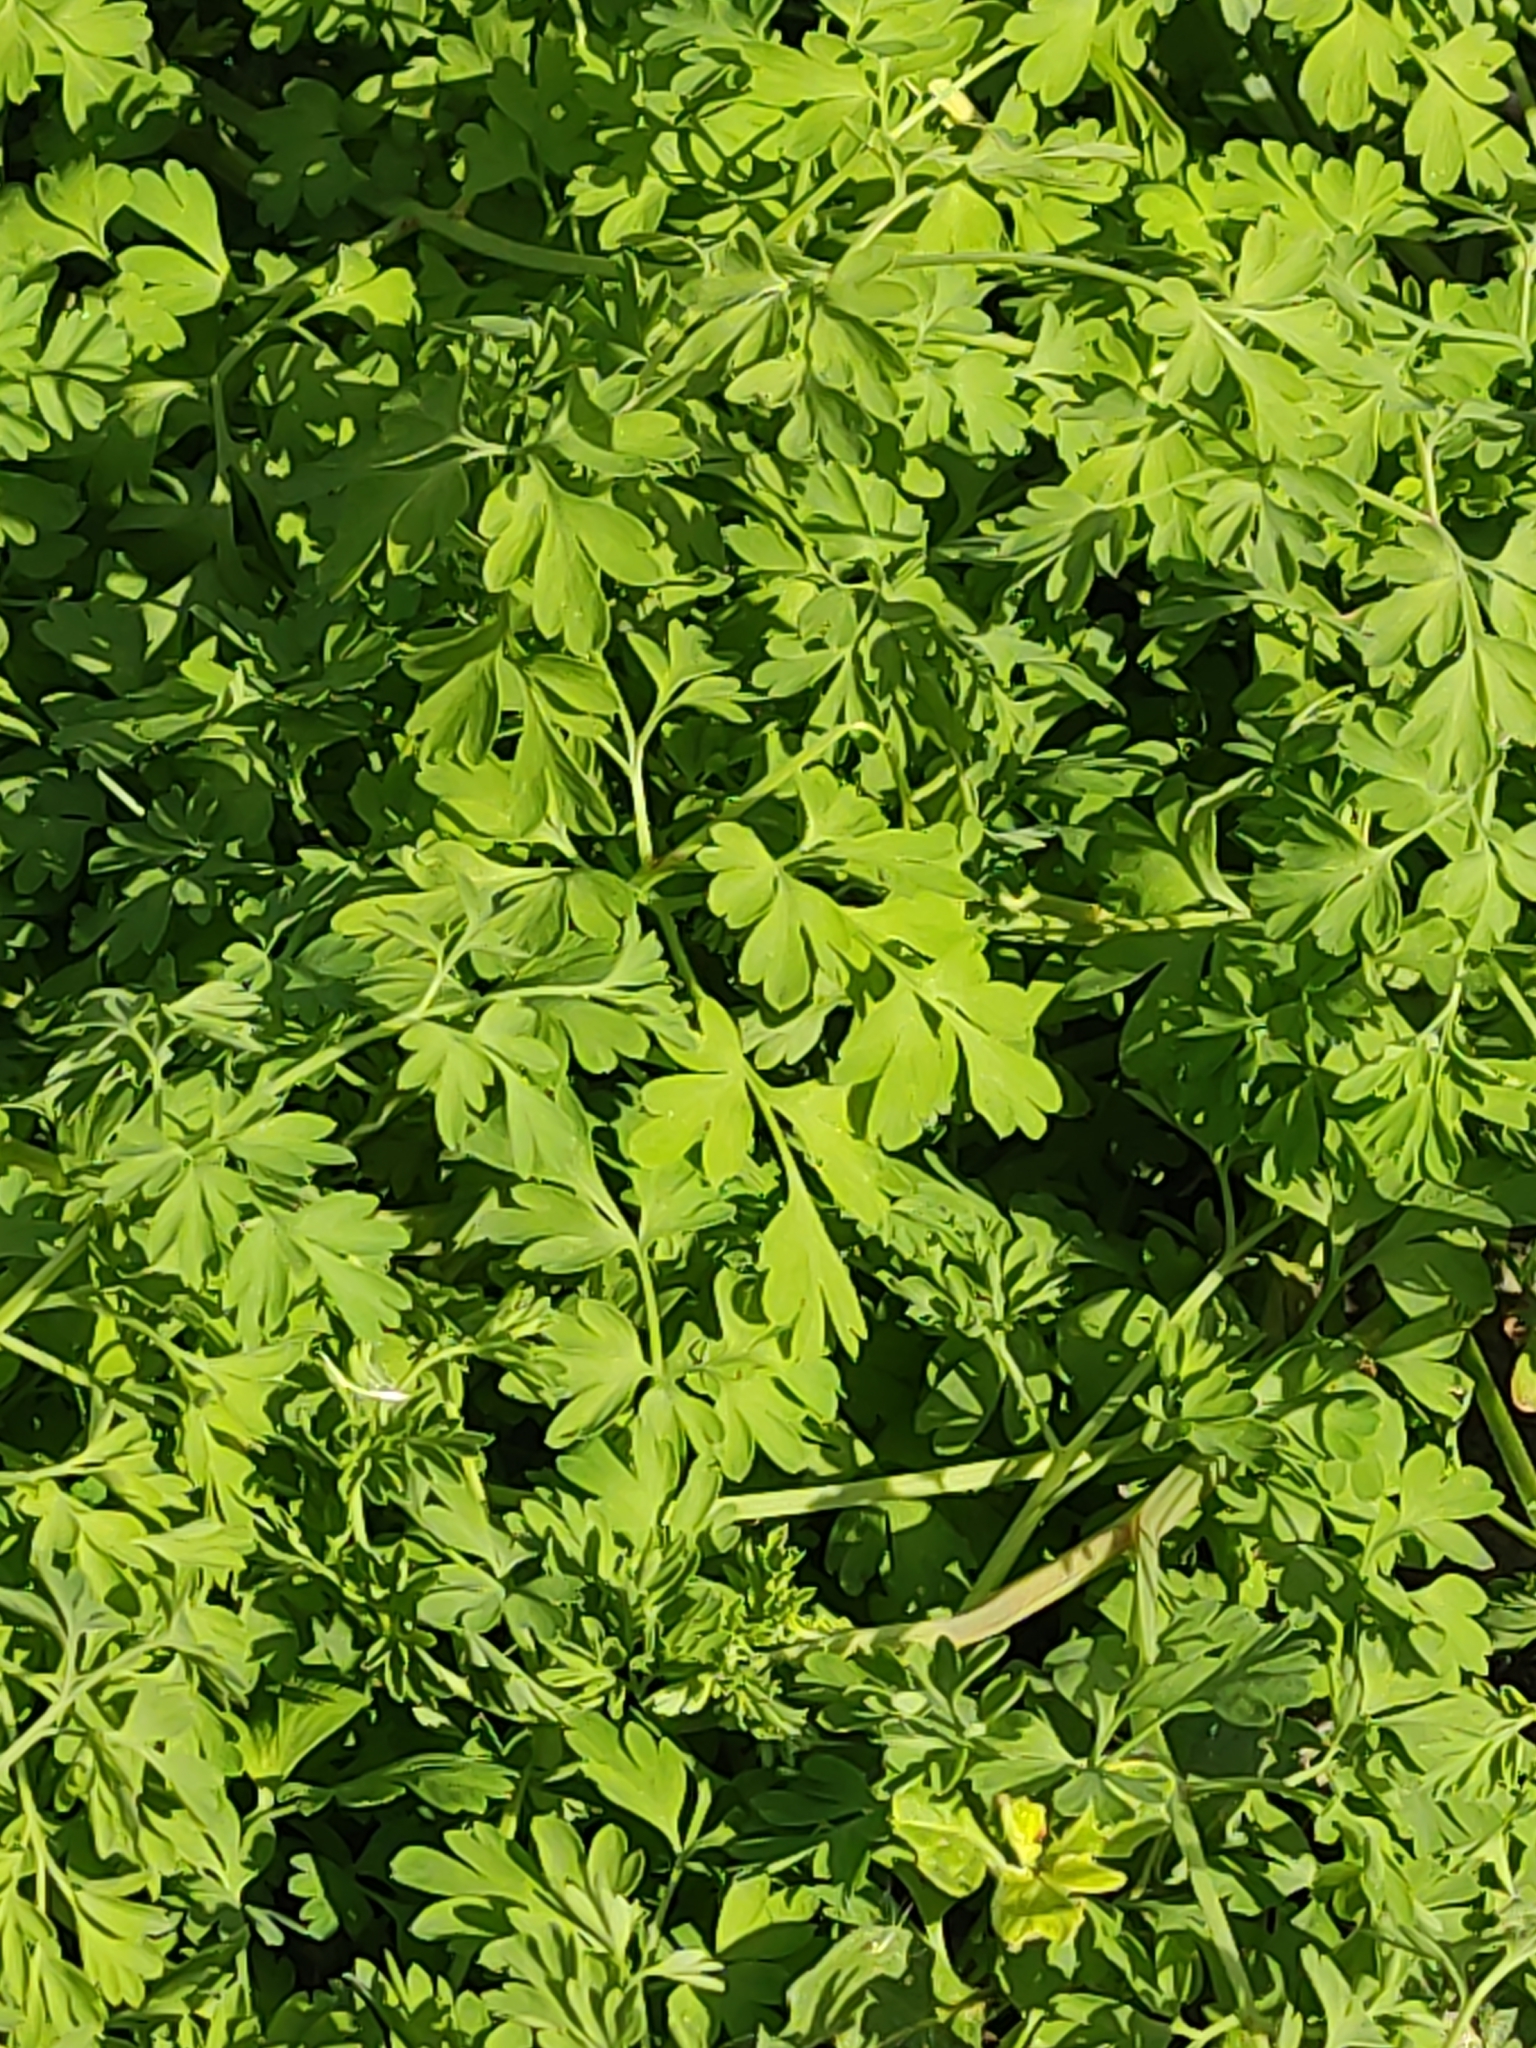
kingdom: Plantae
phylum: Tracheophyta
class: Magnoliopsida
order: Ranunculales
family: Papaveraceae
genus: Fumaria
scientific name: Fumaria muralis
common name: Common ramping-fumitory
